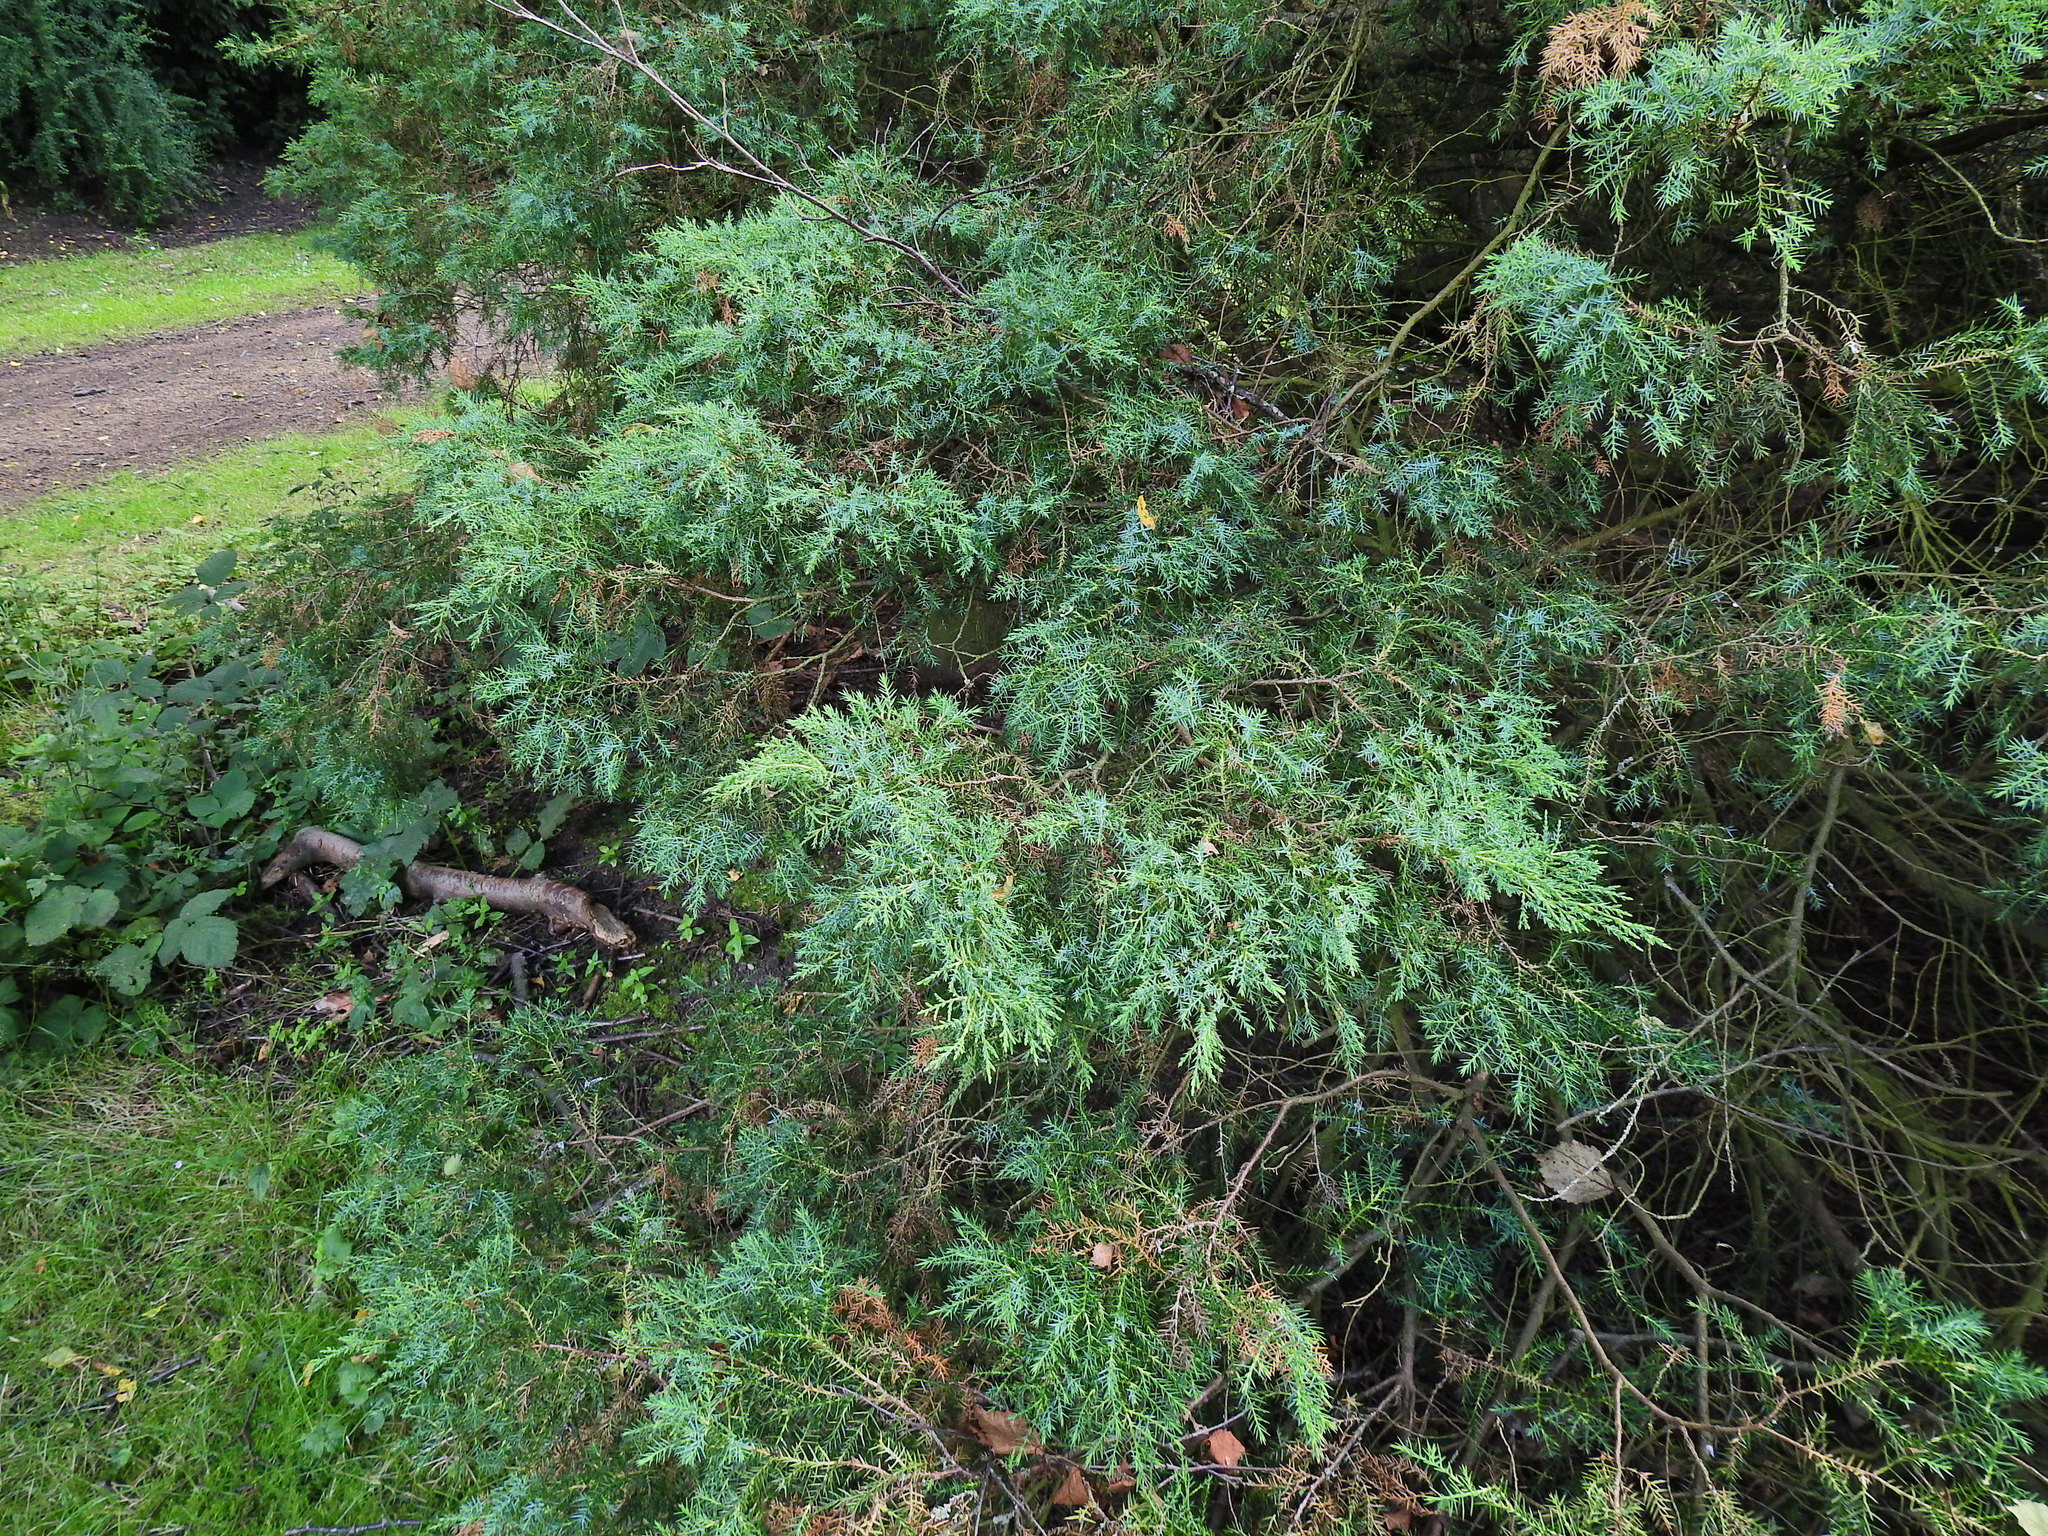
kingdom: Plantae
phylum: Tracheophyta
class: Pinopsida
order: Pinales
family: Cupressaceae
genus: Juniperus
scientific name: Juniperus communis
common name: Common juniper
